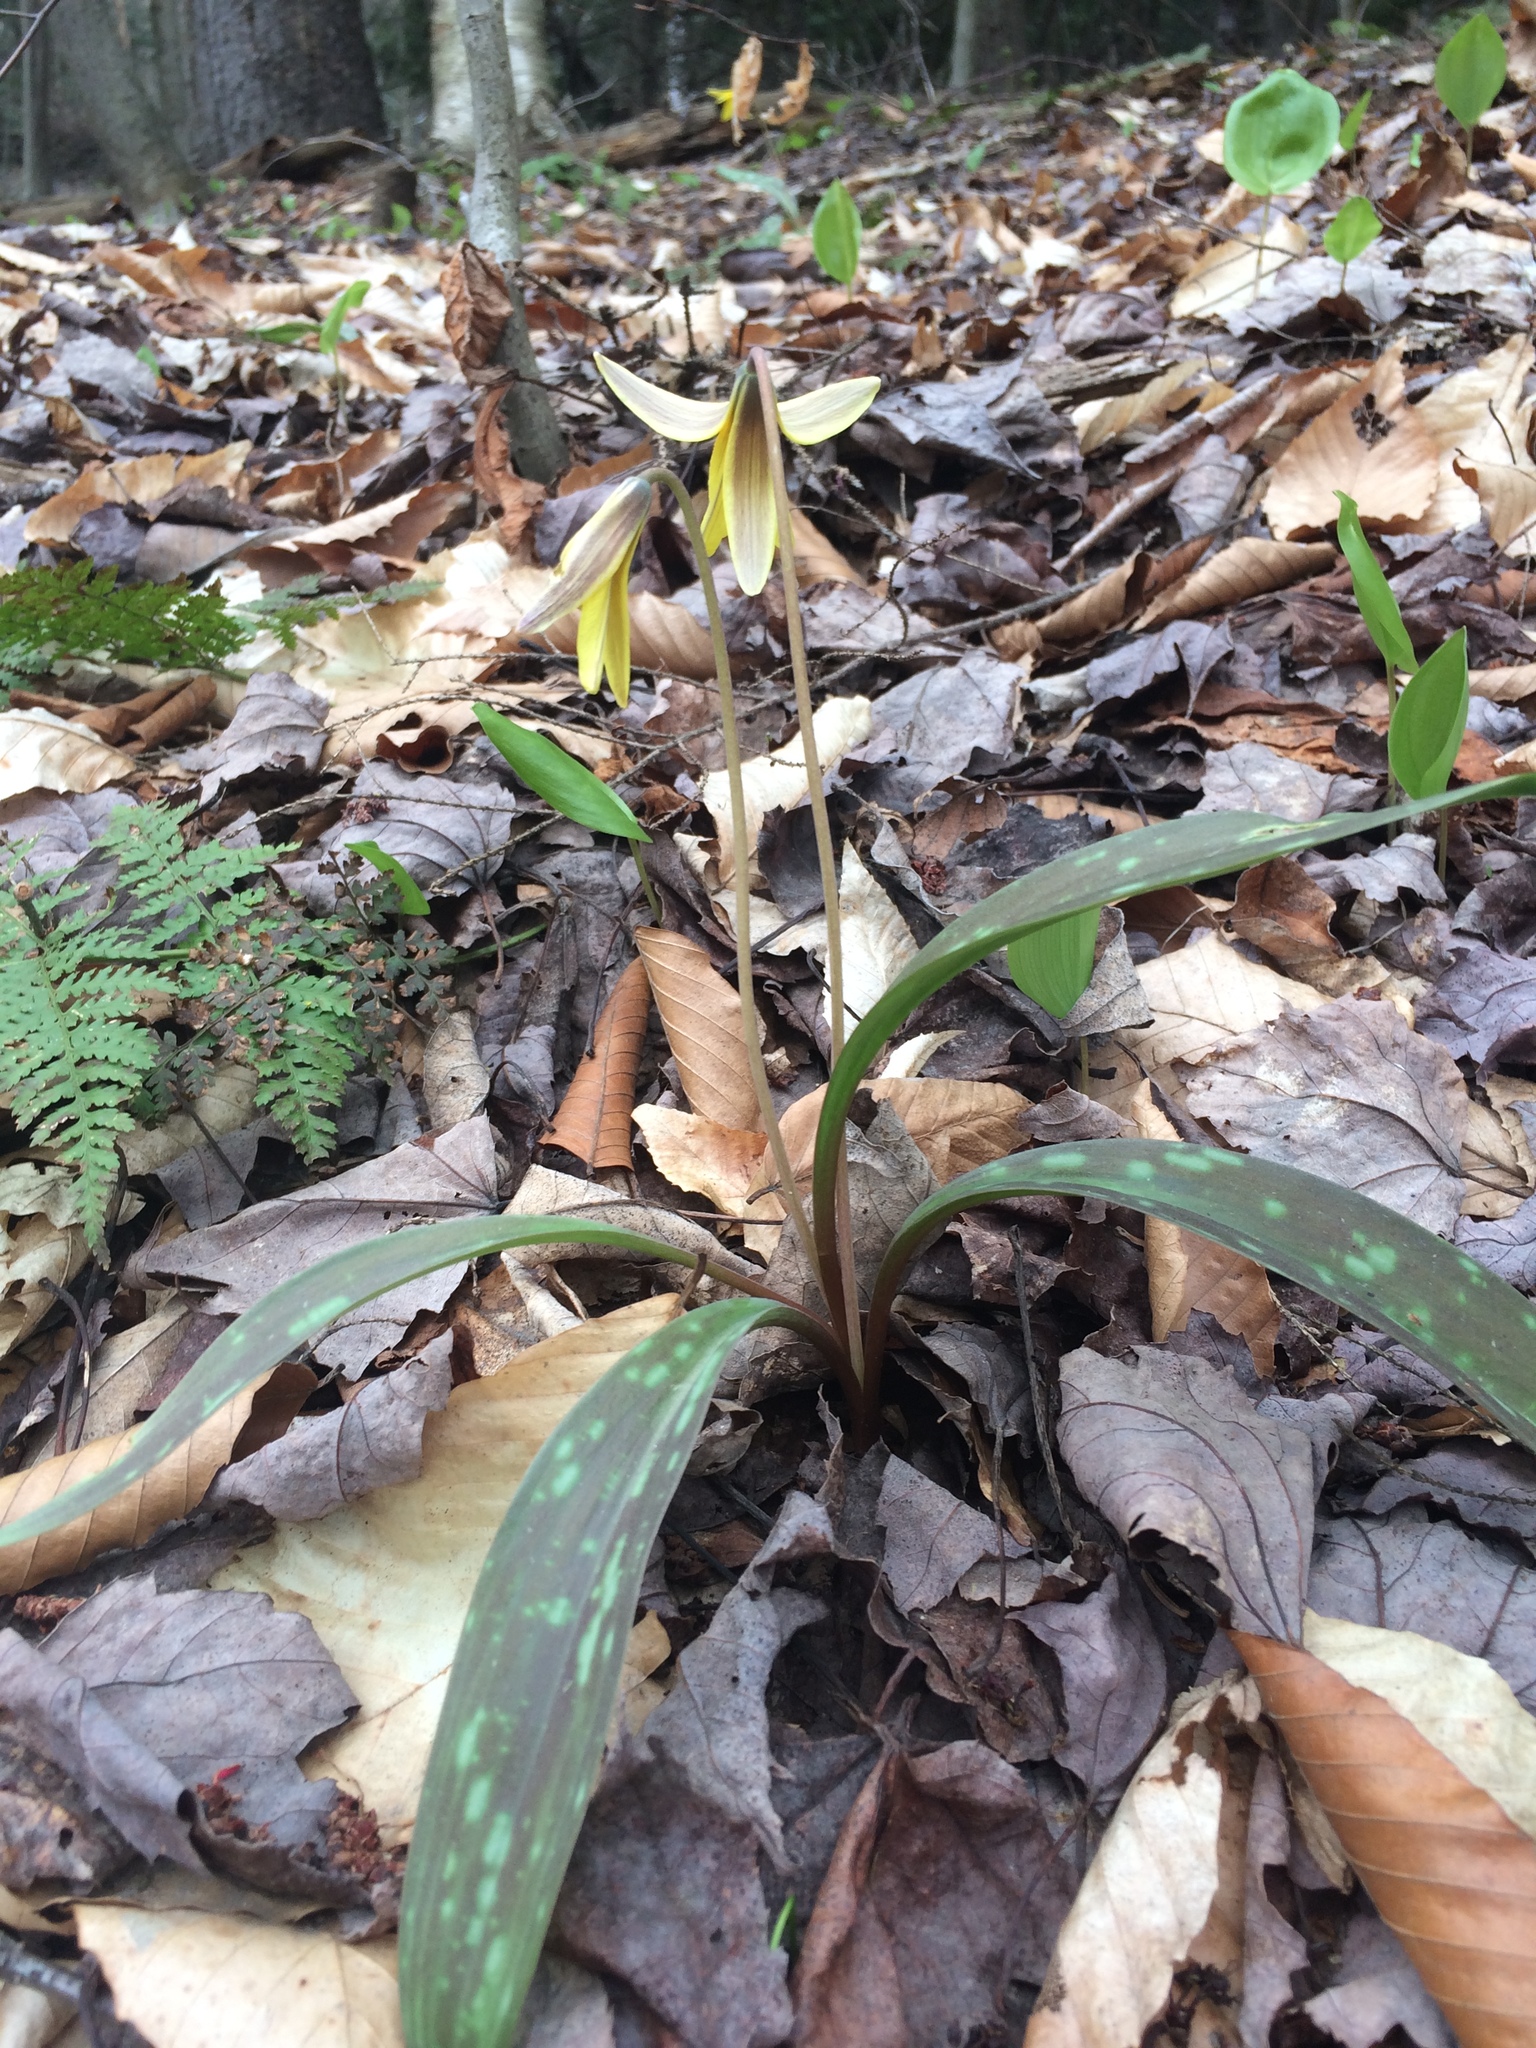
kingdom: Plantae
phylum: Tracheophyta
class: Liliopsida
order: Liliales
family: Liliaceae
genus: Erythronium
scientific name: Erythronium americanum
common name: Yellow adder's-tongue
